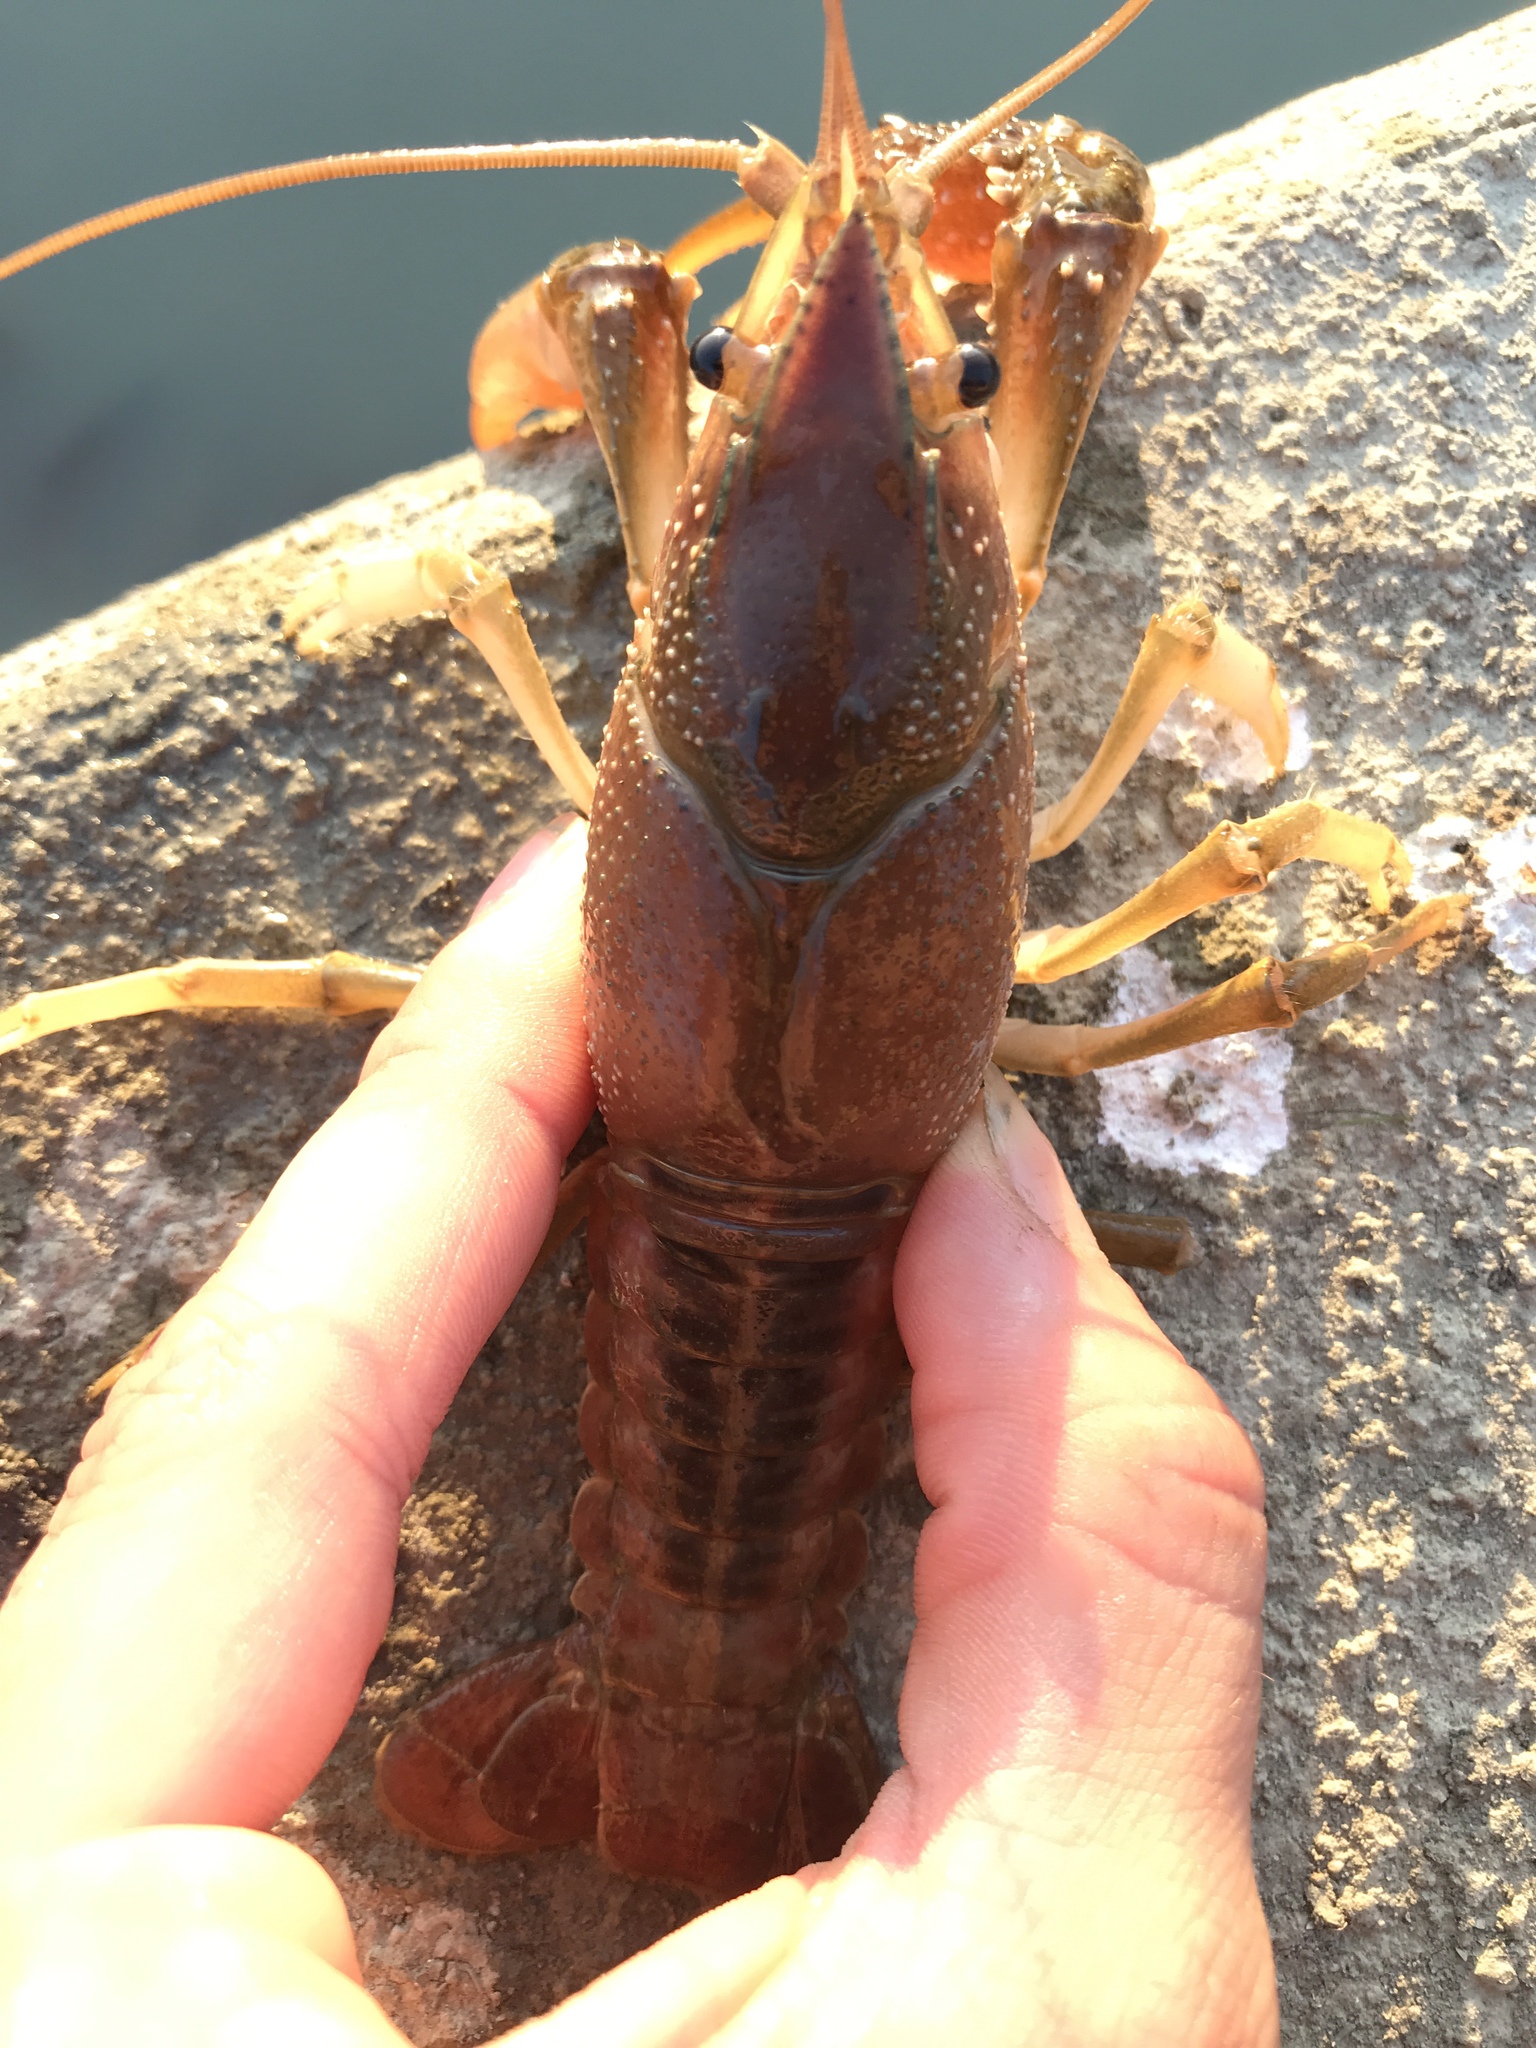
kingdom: Animalia
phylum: Arthropoda
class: Malacostraca
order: Decapoda
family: Cambaridae
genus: Procambarus
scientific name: Procambarus acutus
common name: White river crayfish
